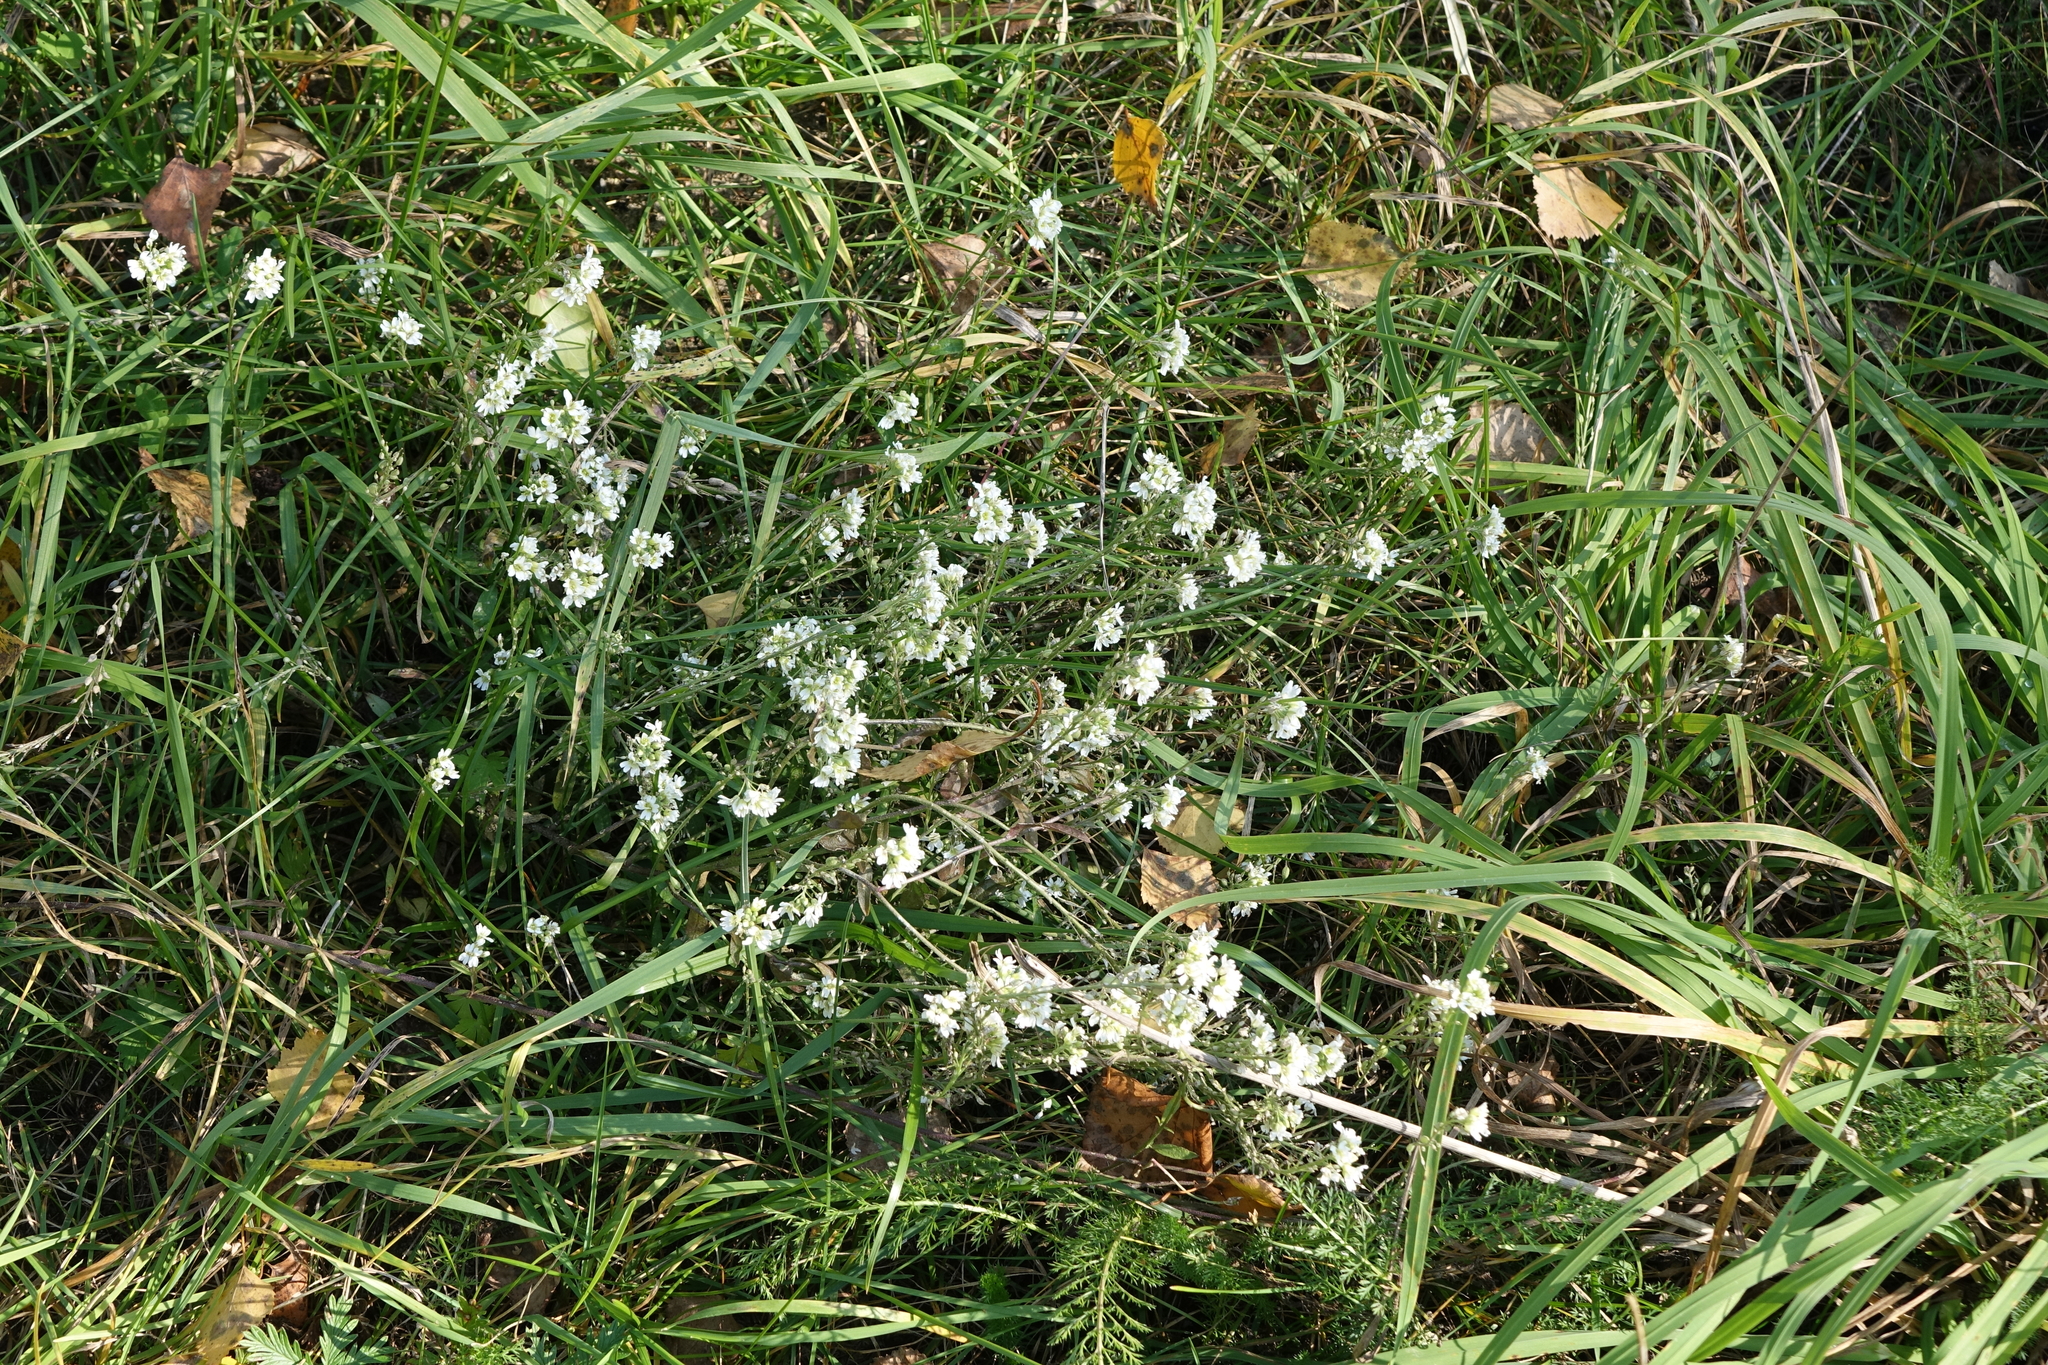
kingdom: Plantae
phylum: Tracheophyta
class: Magnoliopsida
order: Brassicales
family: Brassicaceae
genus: Berteroa
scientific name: Berteroa incana
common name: Hoary alison
